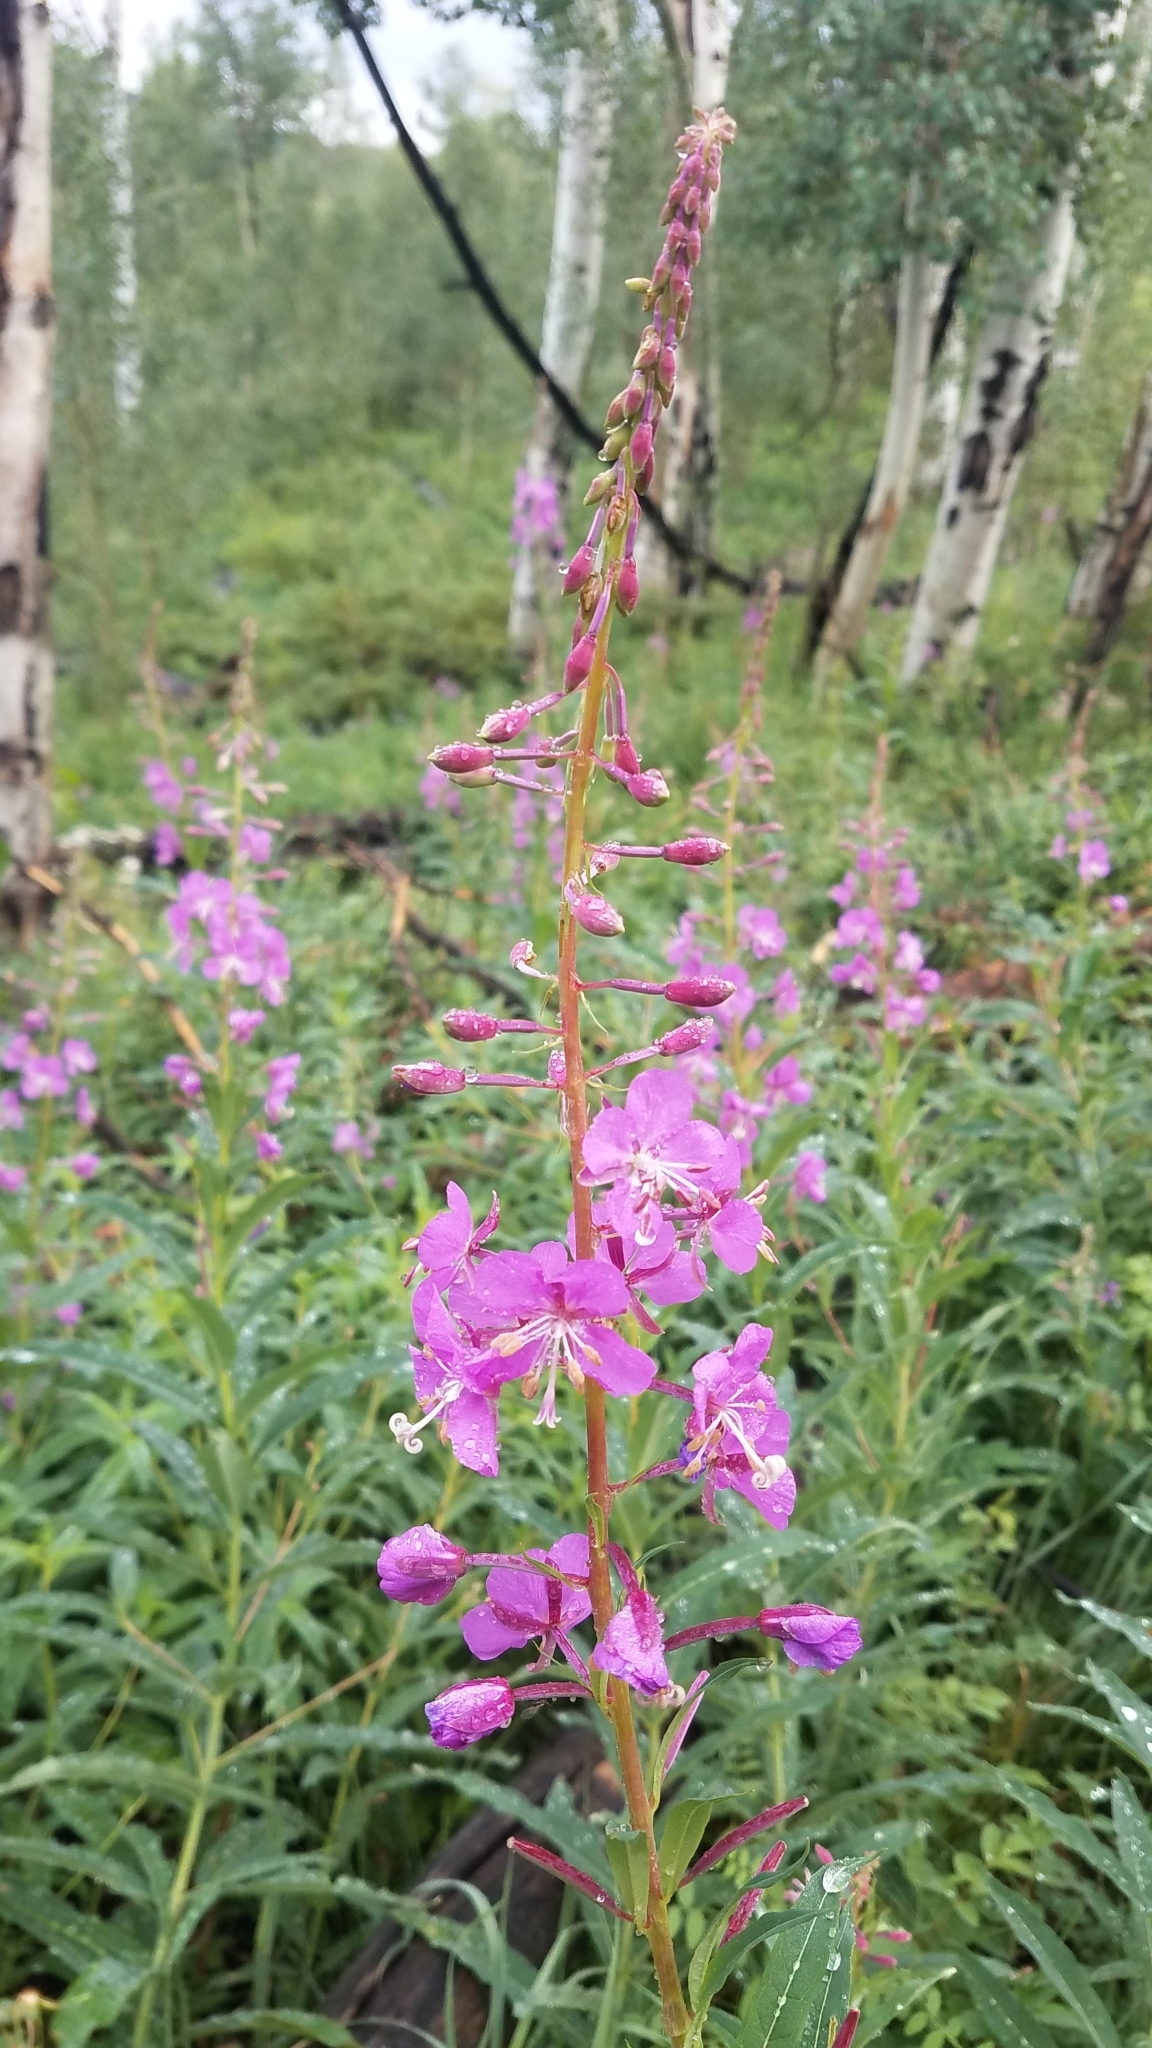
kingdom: Plantae
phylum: Tracheophyta
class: Magnoliopsida
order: Myrtales
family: Onagraceae
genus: Chamaenerion
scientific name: Chamaenerion angustifolium
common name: Fireweed
